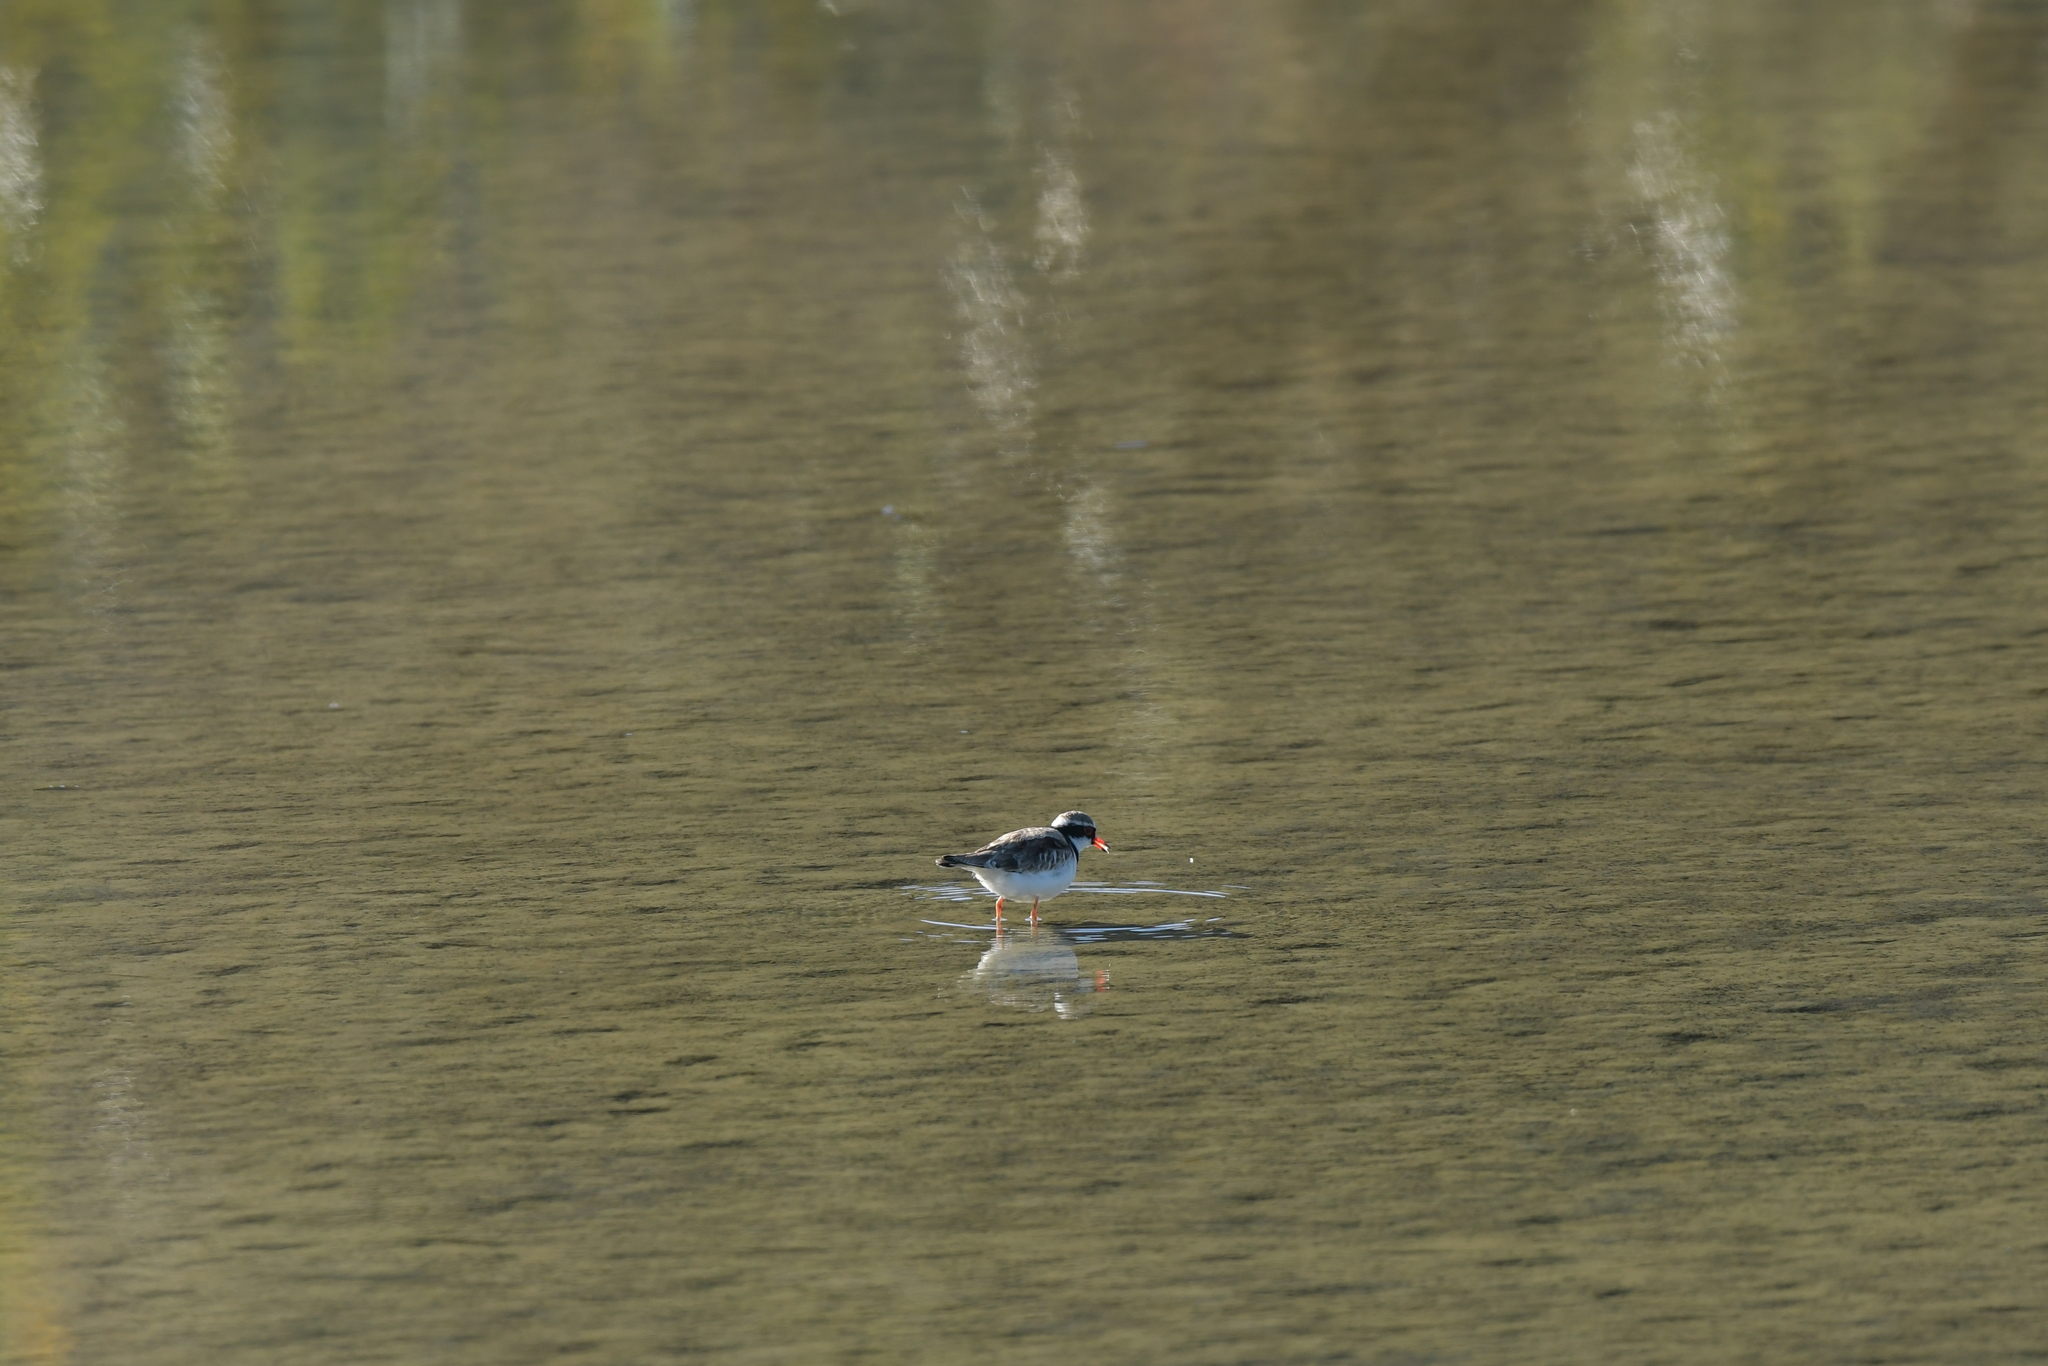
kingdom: Animalia
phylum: Chordata
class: Aves
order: Charadriiformes
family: Charadriidae
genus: Elseyornis
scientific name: Elseyornis melanops
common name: Black-fronted dotterel
